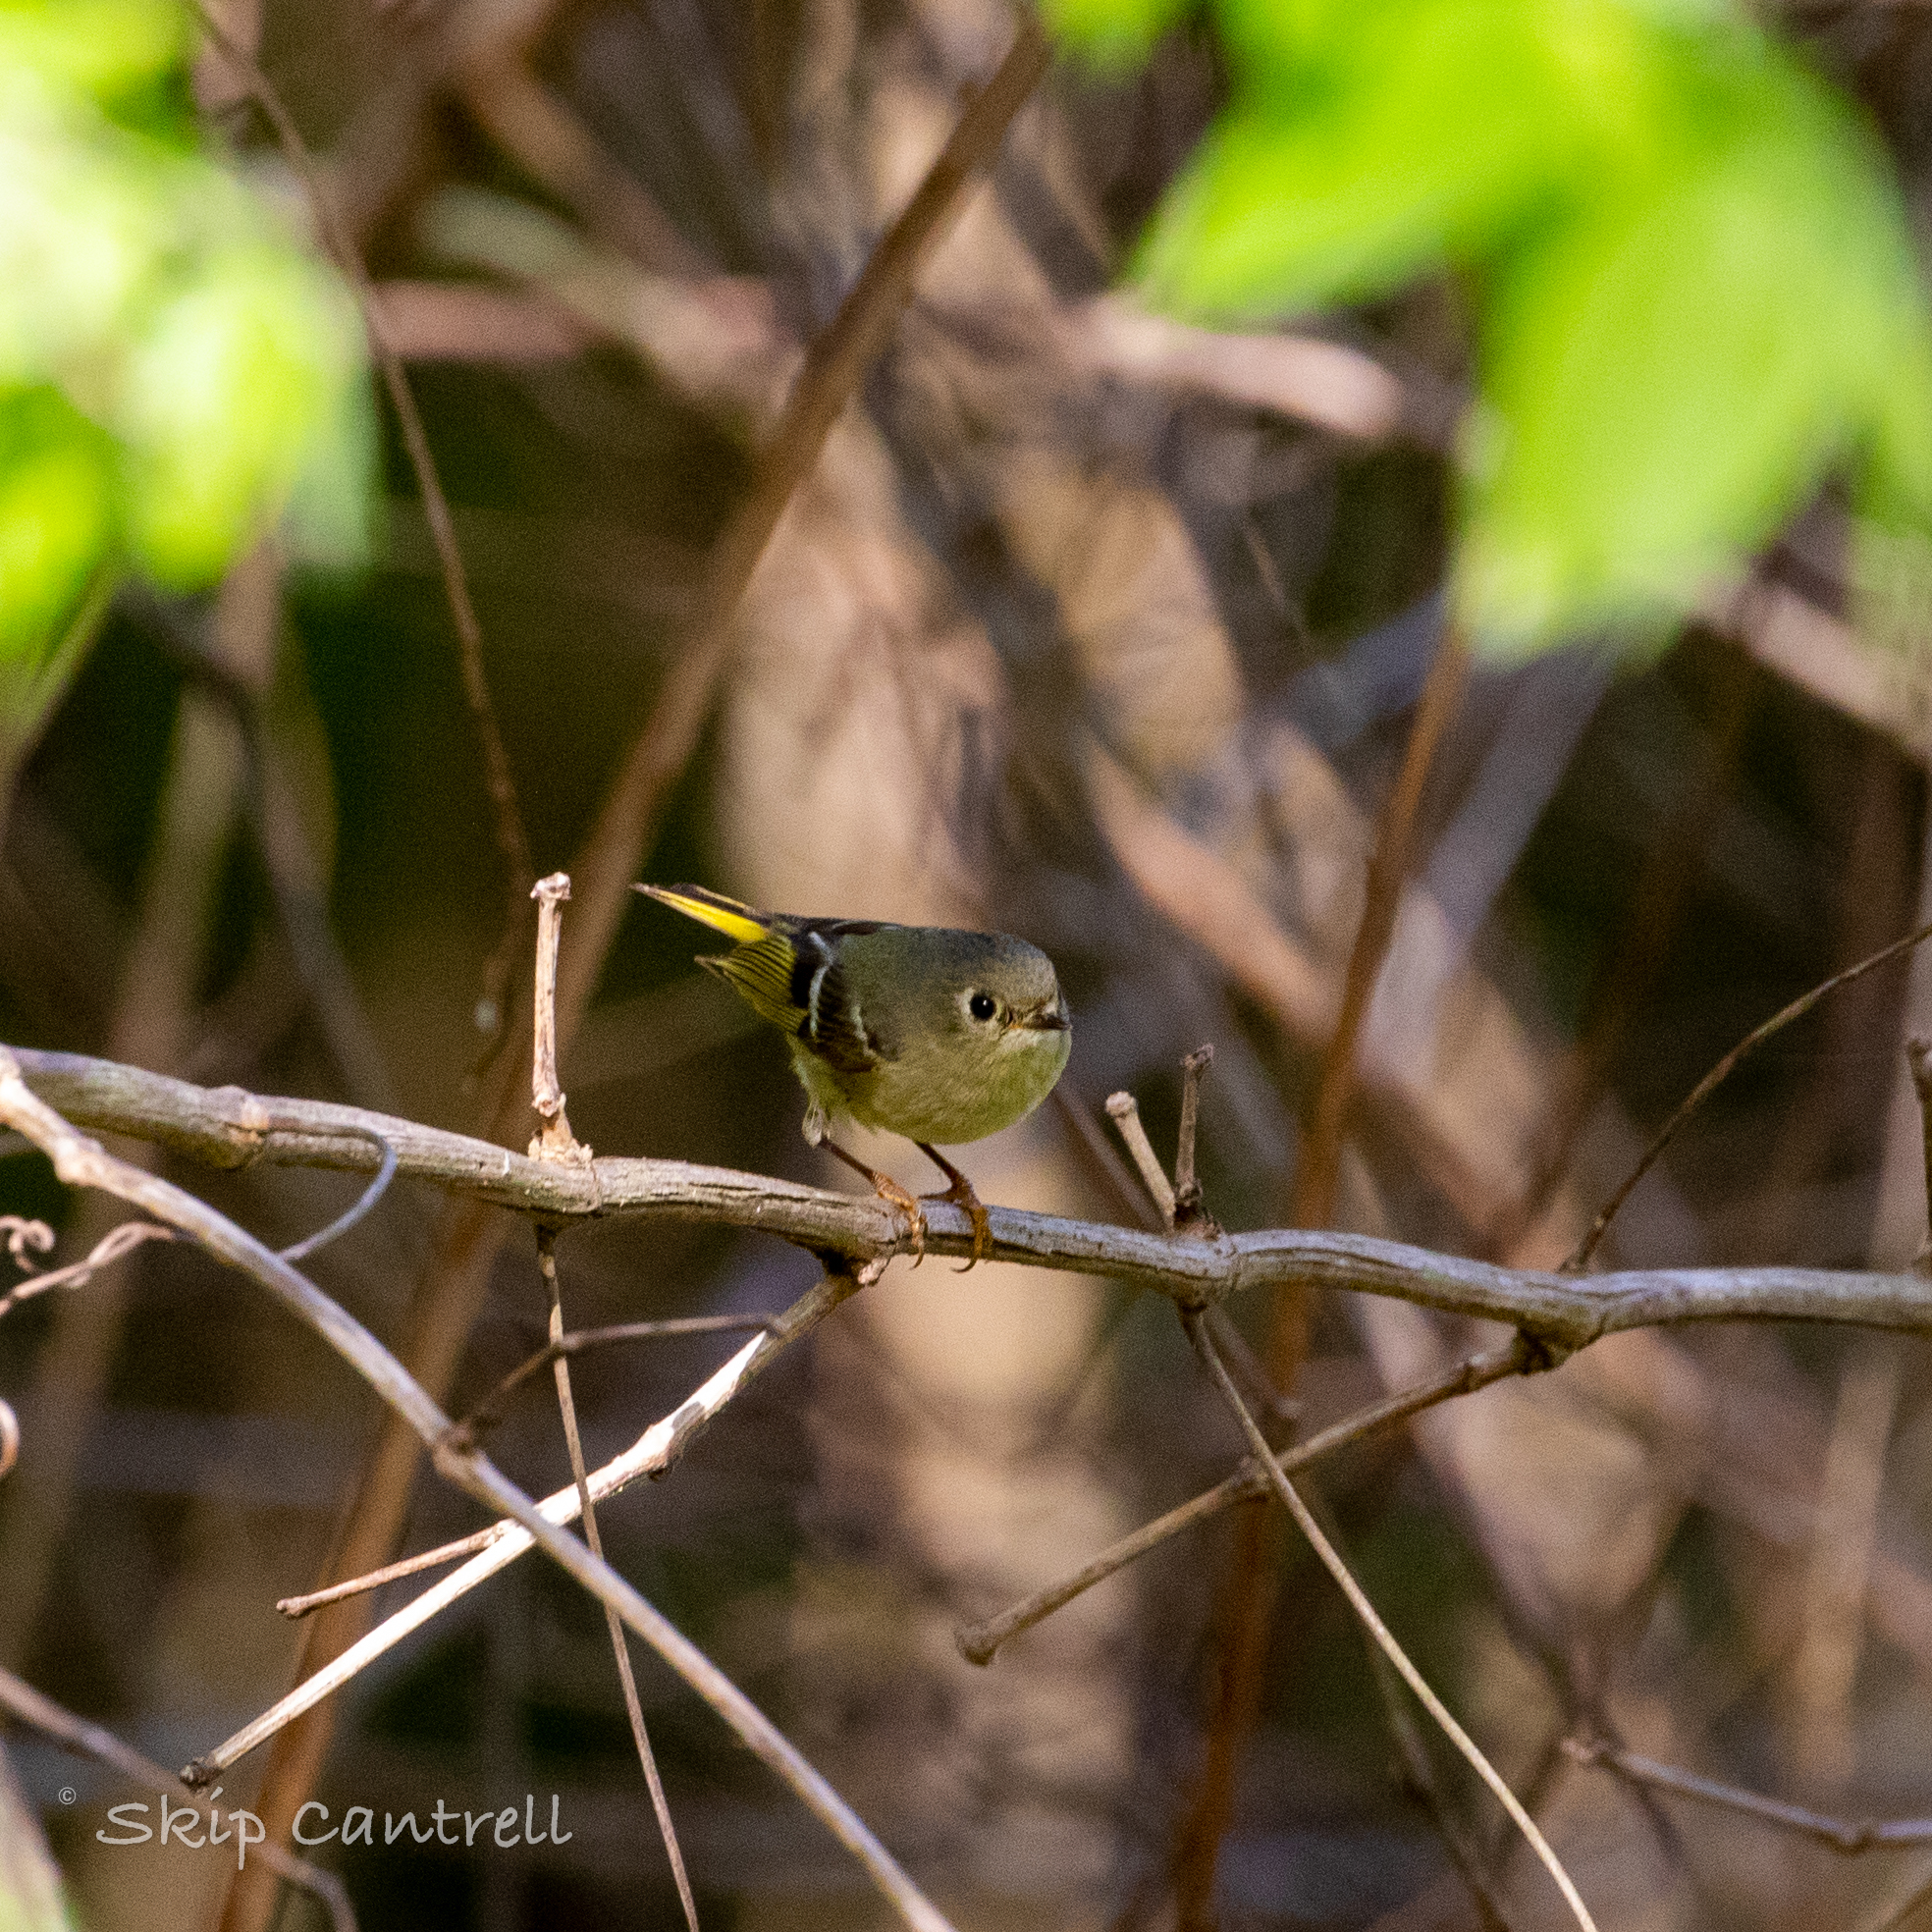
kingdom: Animalia
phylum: Chordata
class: Aves
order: Passeriformes
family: Regulidae
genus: Regulus
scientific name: Regulus calendula
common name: Ruby-crowned kinglet
